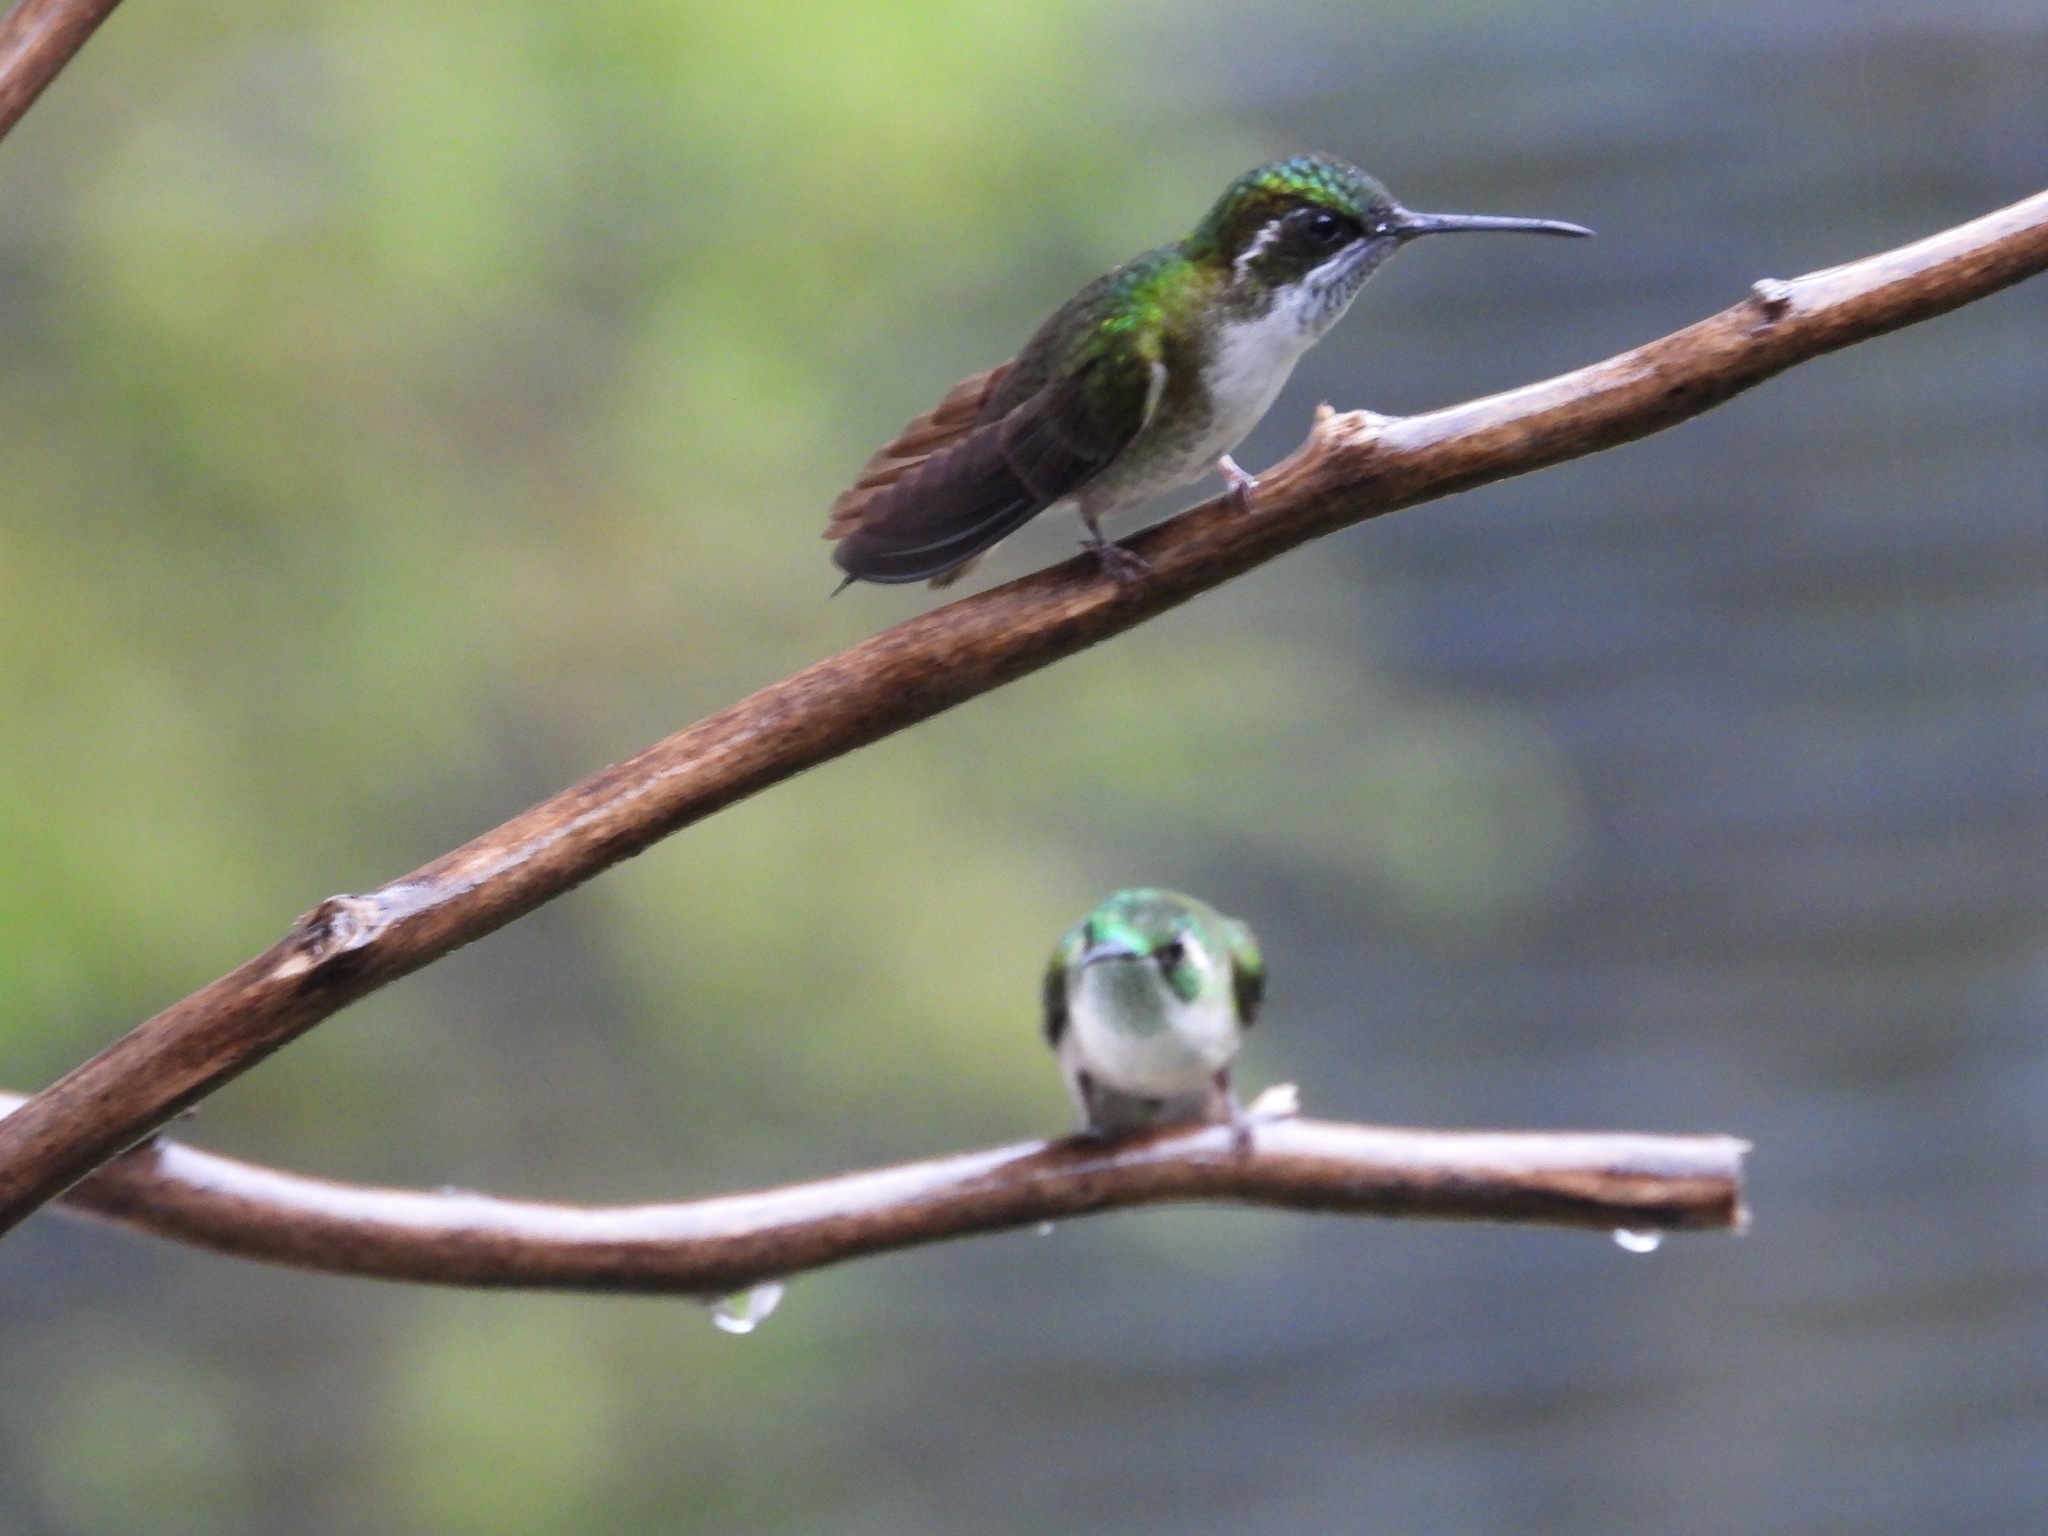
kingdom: Animalia
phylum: Chordata
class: Aves
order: Apodiformes
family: Trochilidae
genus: Lampornis
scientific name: Lampornis viridipallens
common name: Green-throated mountain-gem
